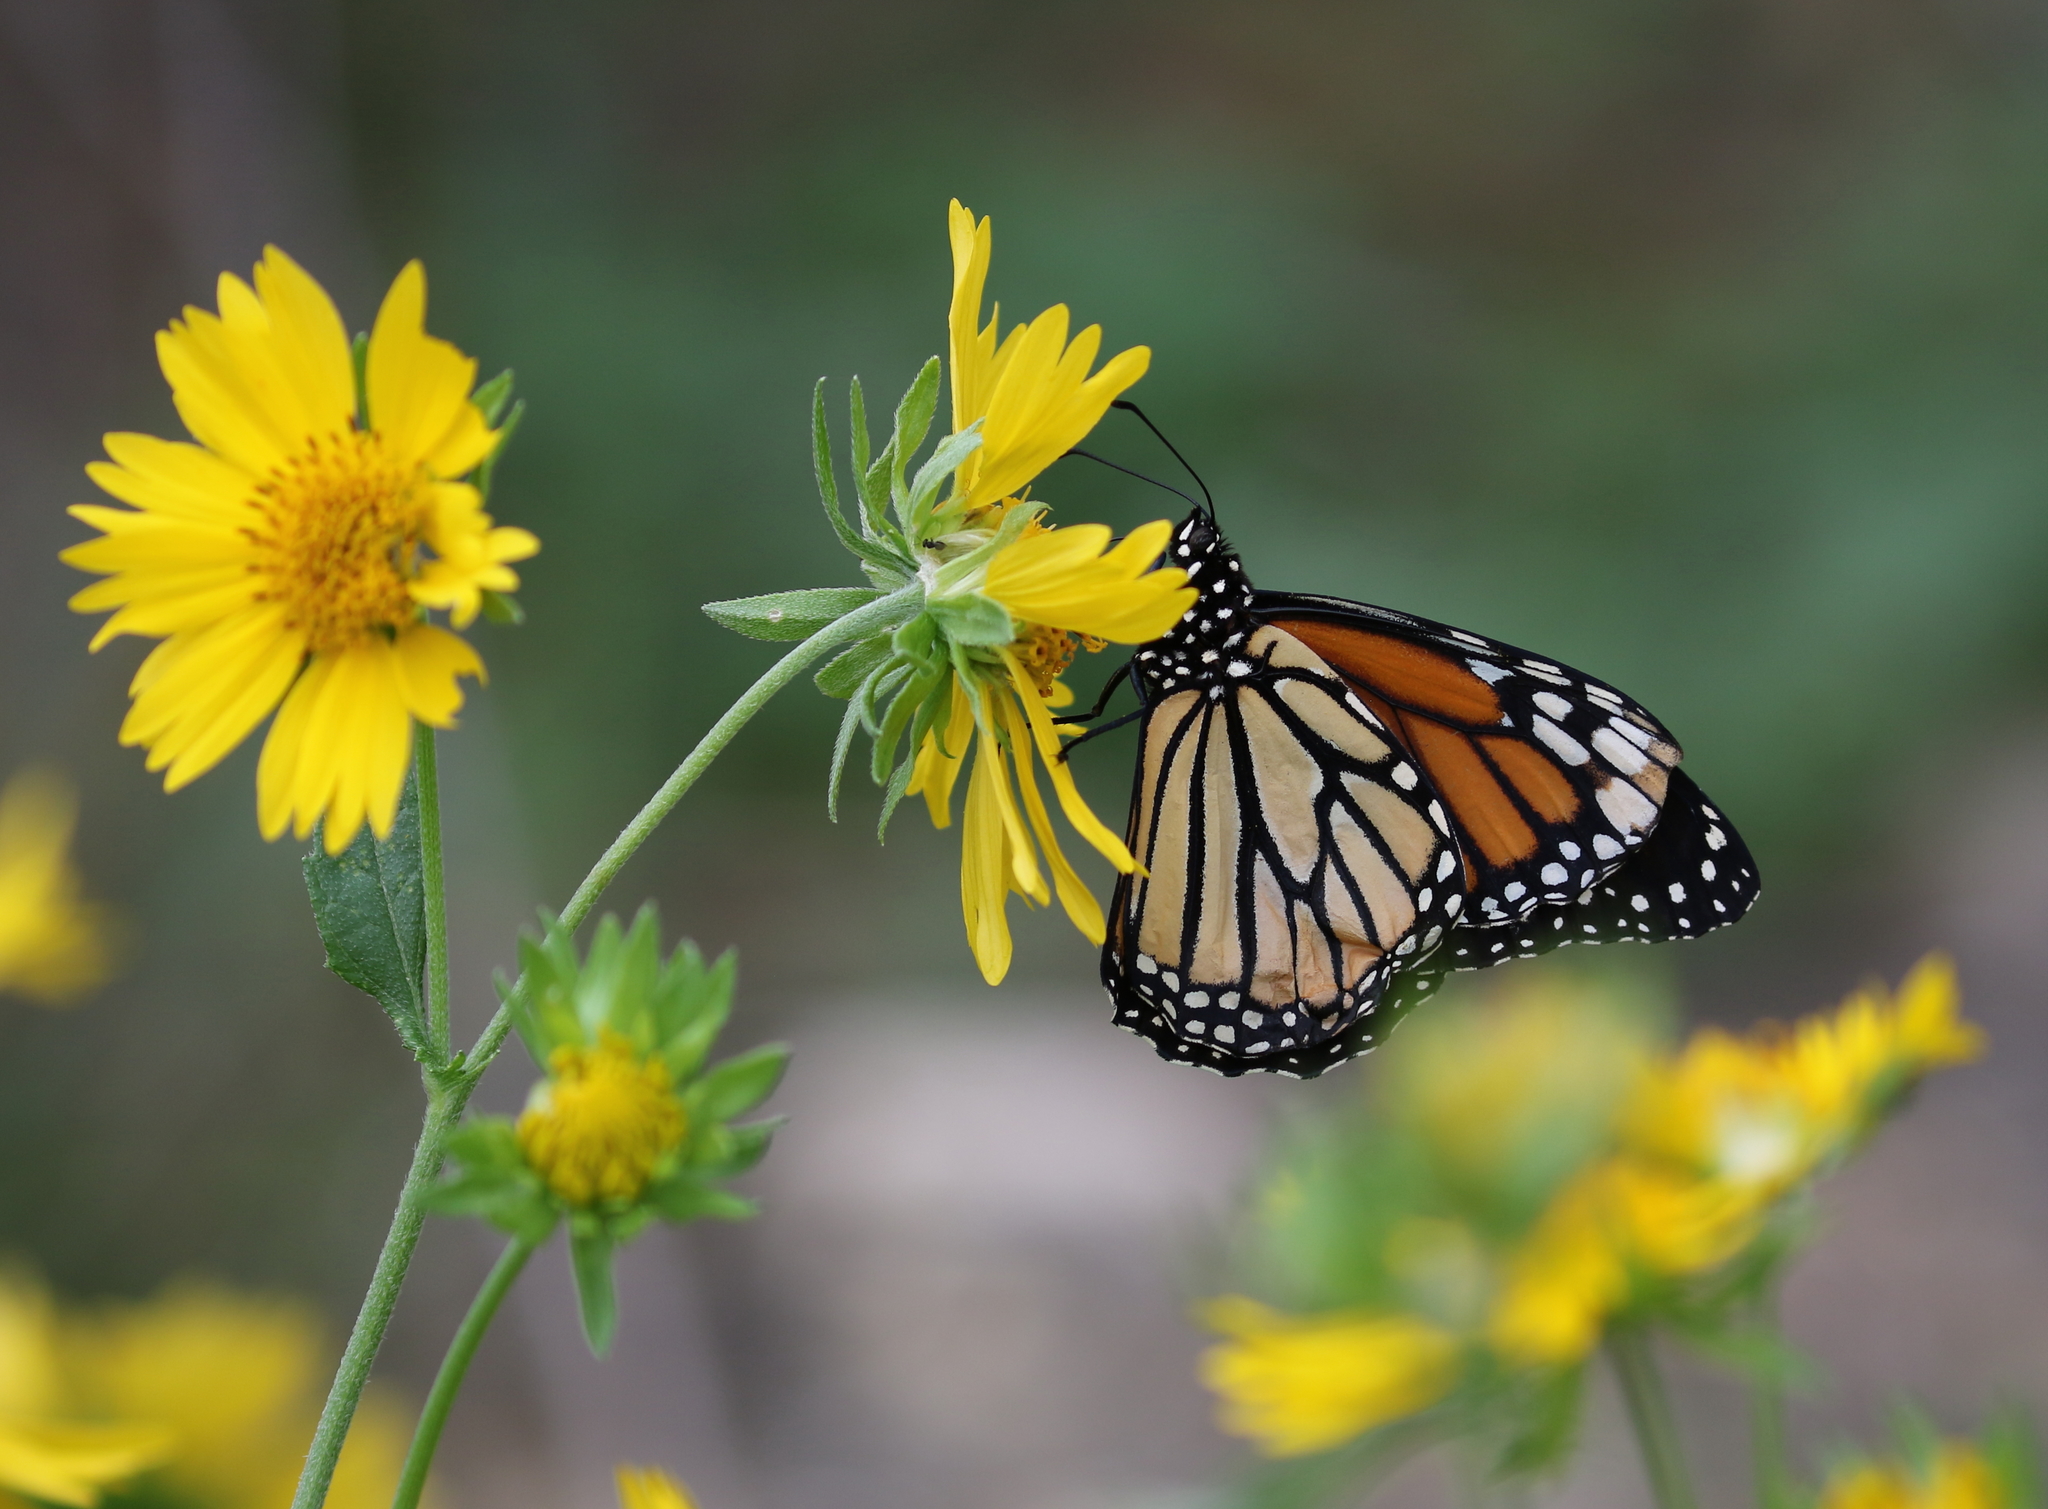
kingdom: Animalia
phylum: Arthropoda
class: Insecta
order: Lepidoptera
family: Nymphalidae
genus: Danaus
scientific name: Danaus plexippus
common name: Monarch
